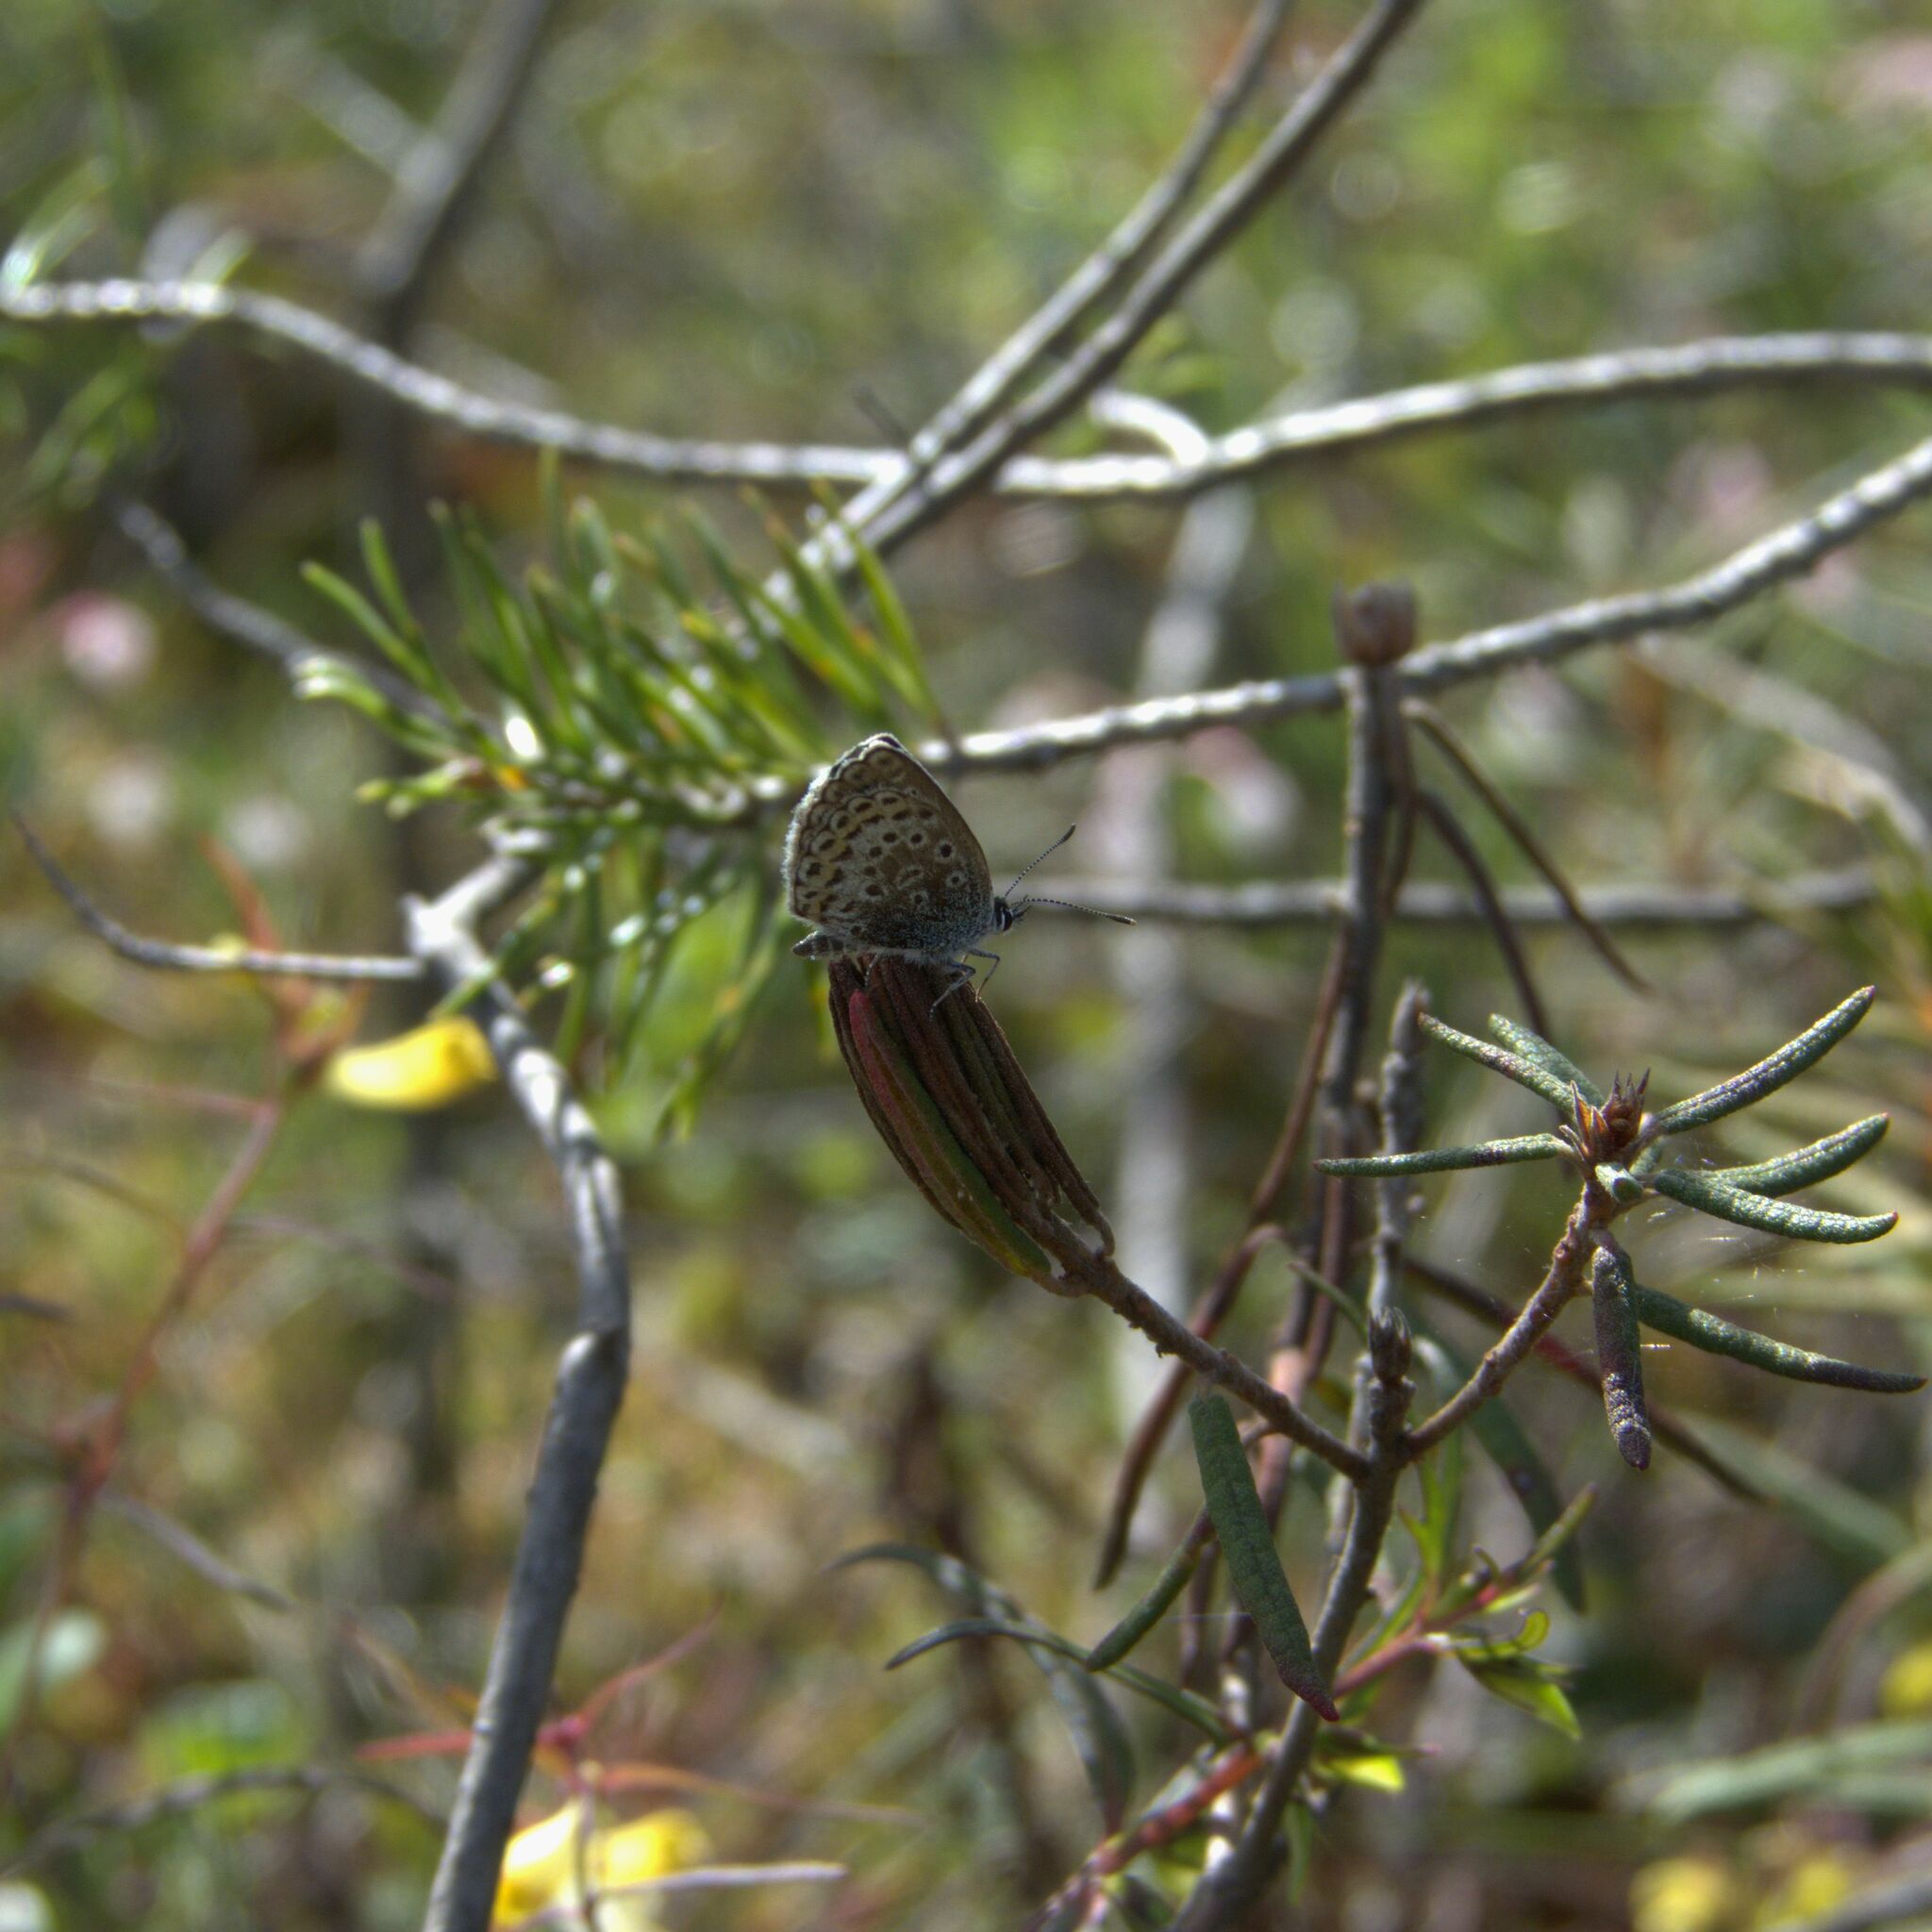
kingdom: Animalia
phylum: Arthropoda
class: Insecta
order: Lepidoptera
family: Lycaenidae
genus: Plebejus
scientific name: Plebejus argus
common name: Silver-studded blue
